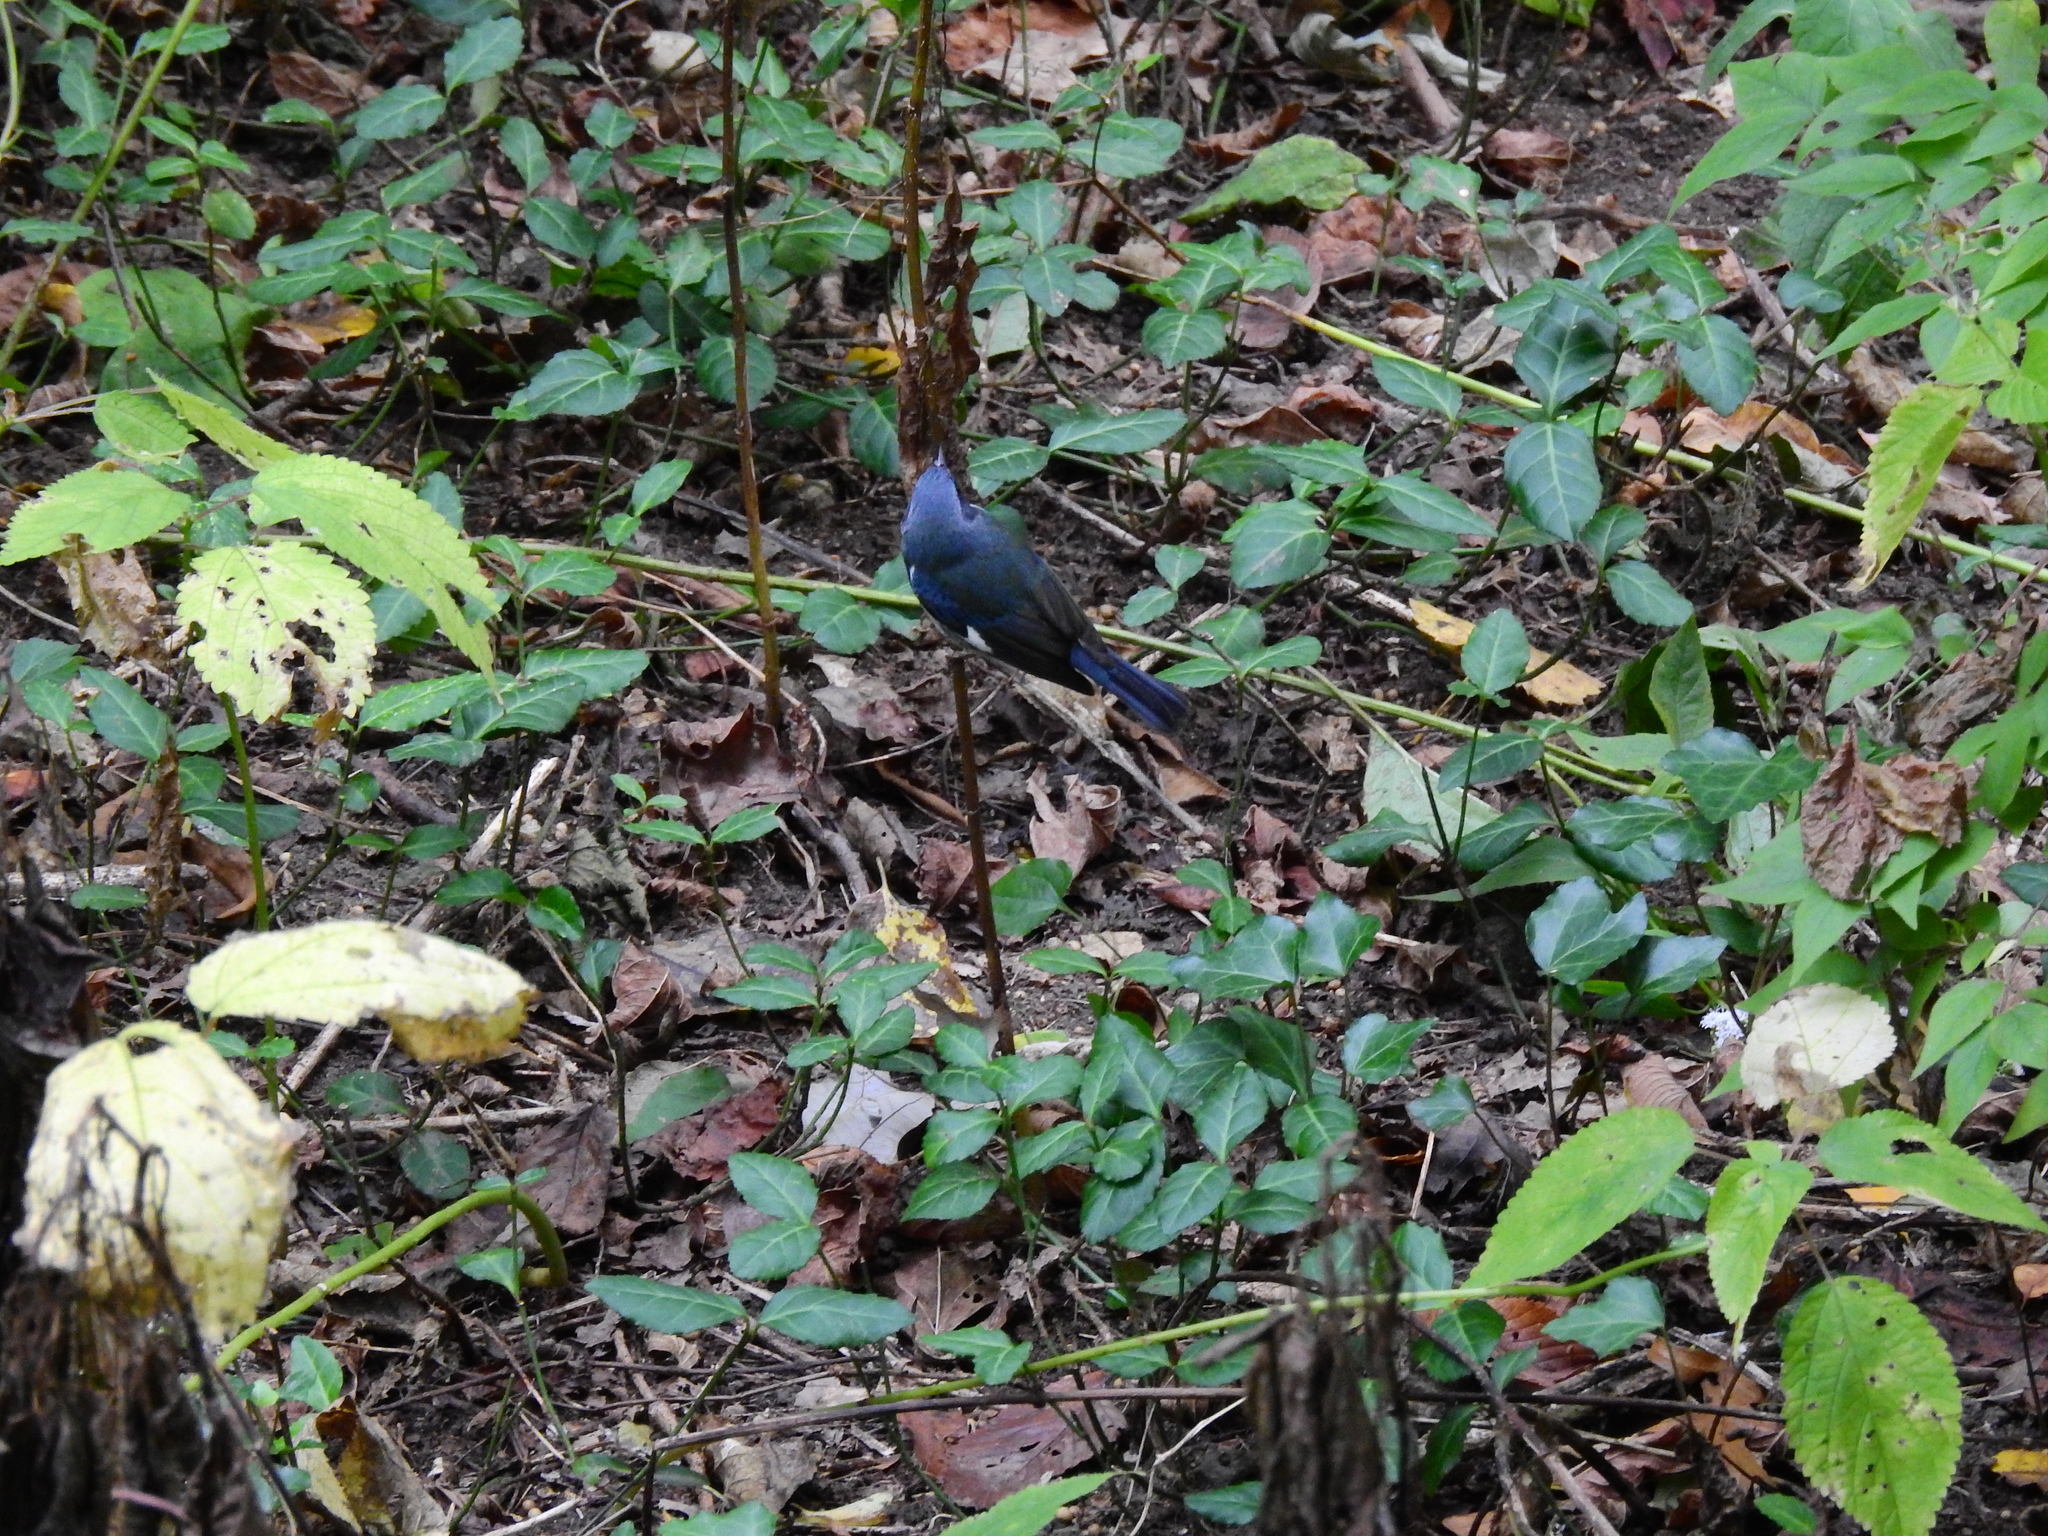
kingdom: Animalia
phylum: Chordata
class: Aves
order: Passeriformes
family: Parulidae
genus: Setophaga
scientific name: Setophaga caerulescens
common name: Black-throated blue warbler
